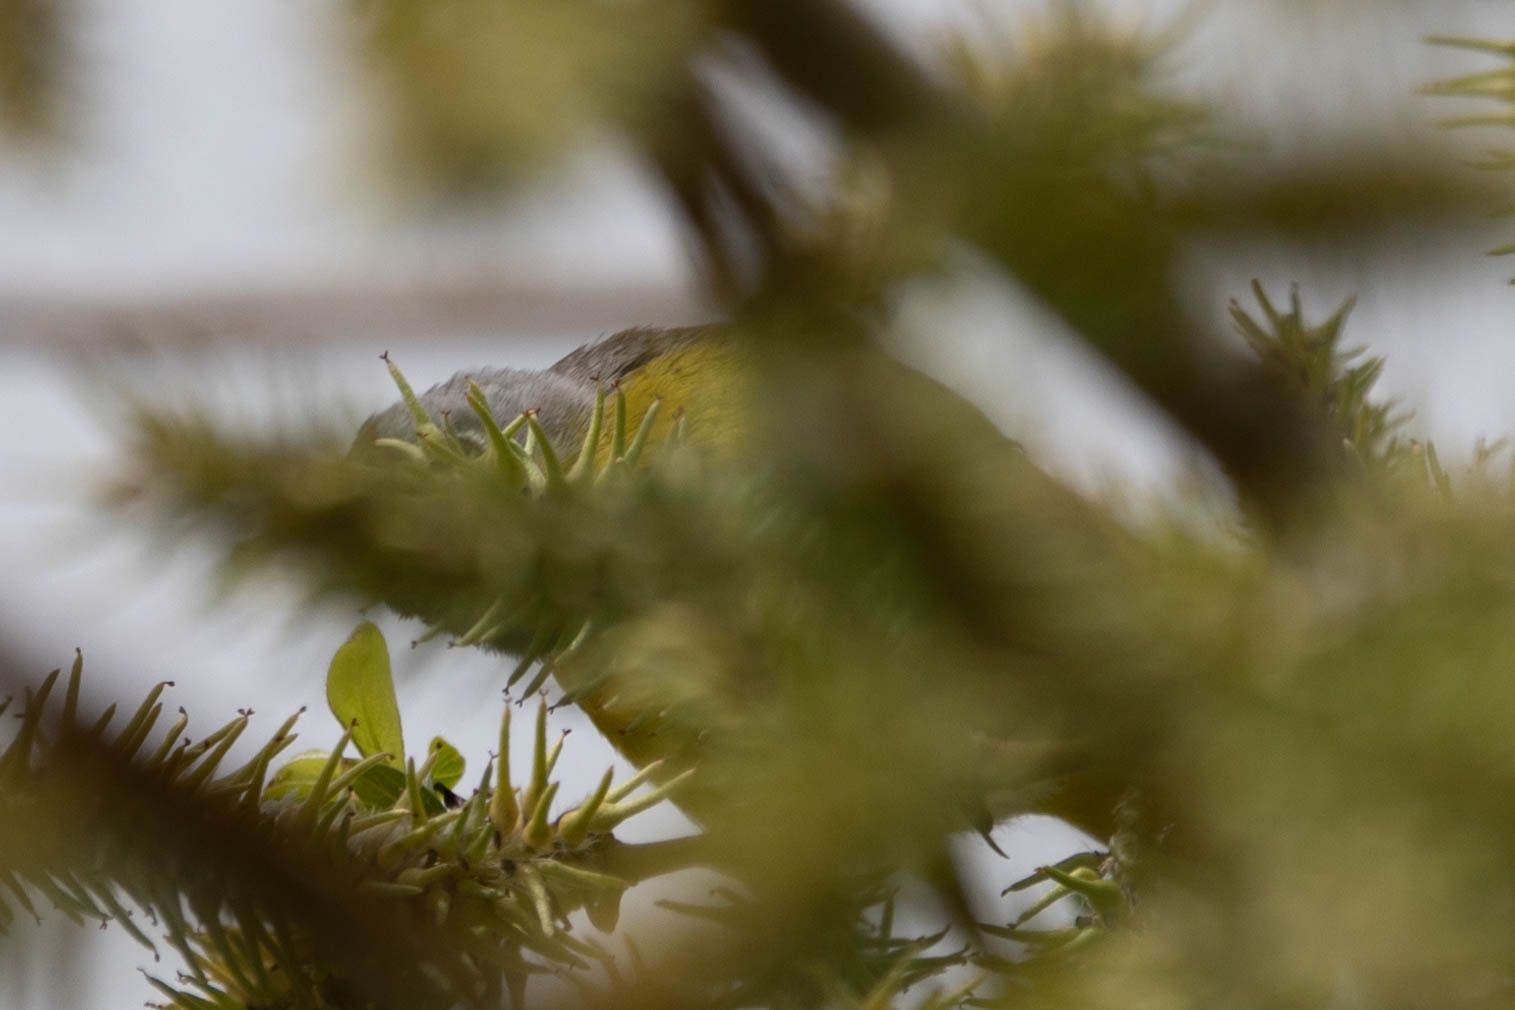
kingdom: Animalia
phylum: Chordata
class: Aves
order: Passeriformes
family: Parulidae
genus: Leiothlypis
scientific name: Leiothlypis ruficapilla
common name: Nashville warbler
